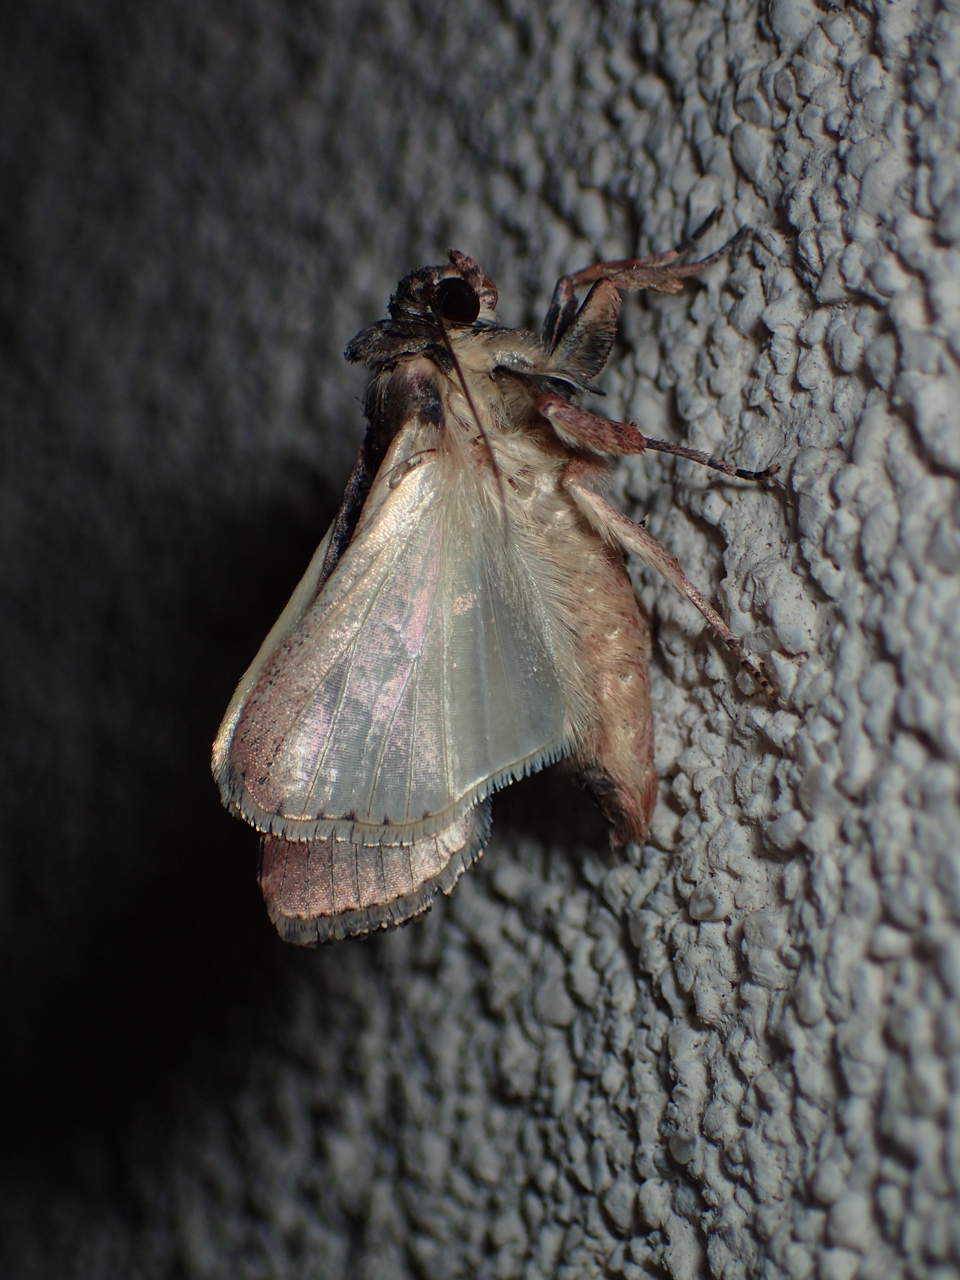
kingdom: Animalia
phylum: Arthropoda
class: Insecta
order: Lepidoptera
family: Noctuidae
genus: Spodoptera
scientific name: Spodoptera frugiperda
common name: Fall armyworm
